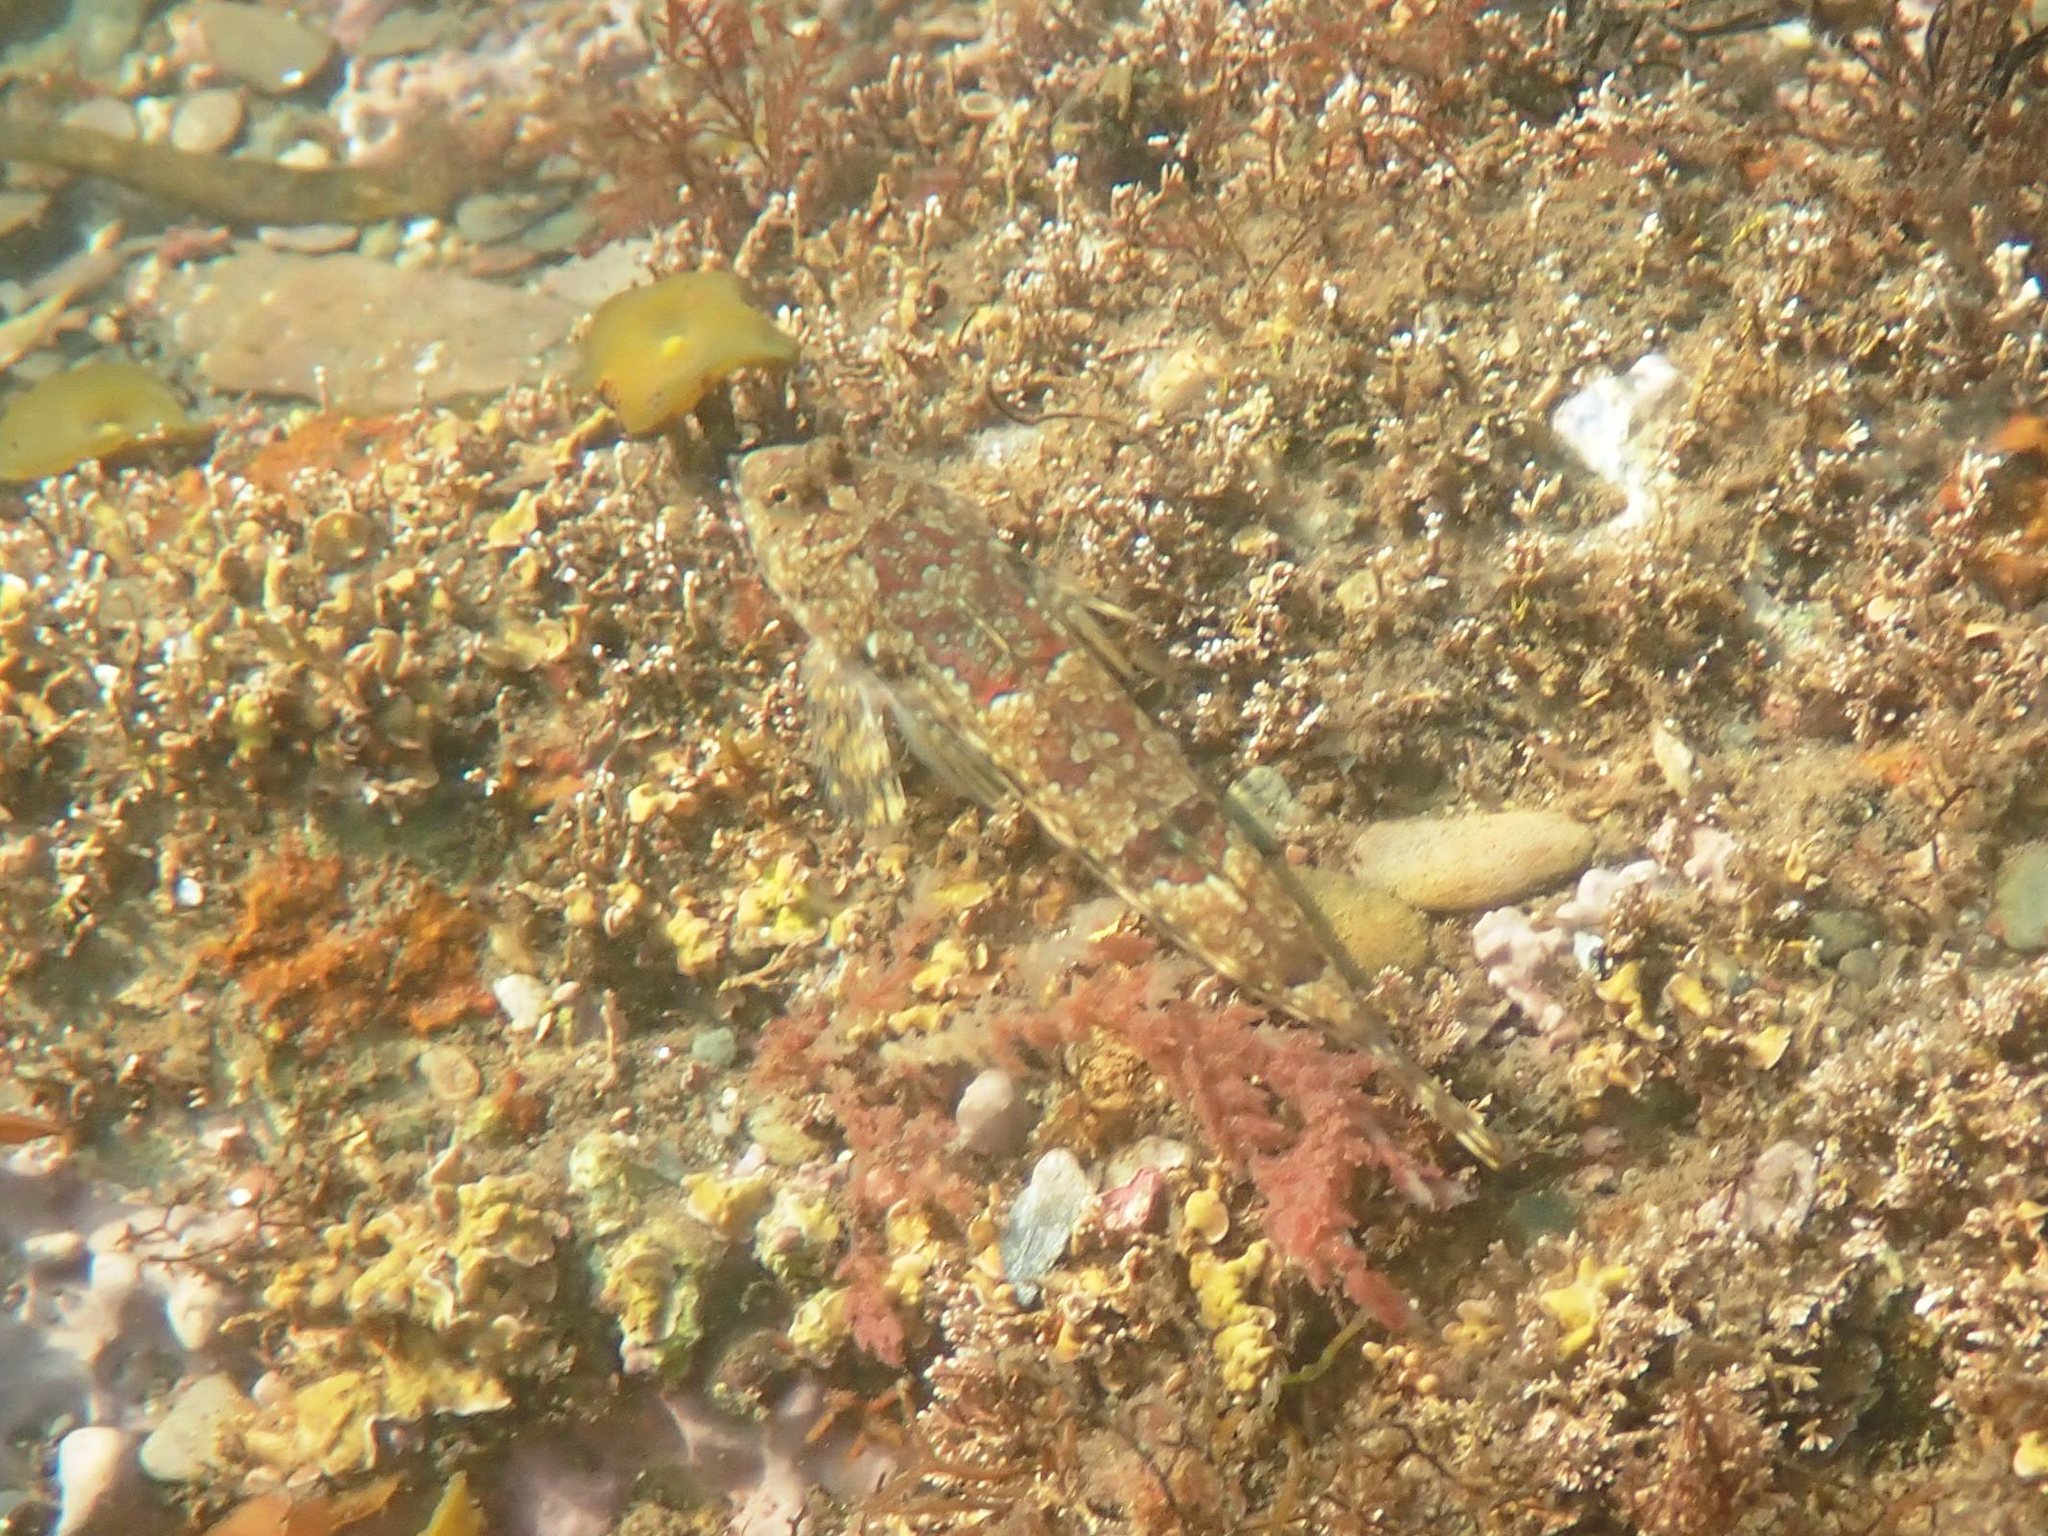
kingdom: Animalia
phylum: Chordata
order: Perciformes
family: Callionymidae
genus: Callionymus
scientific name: Callionymus lyra
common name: Dragonet
